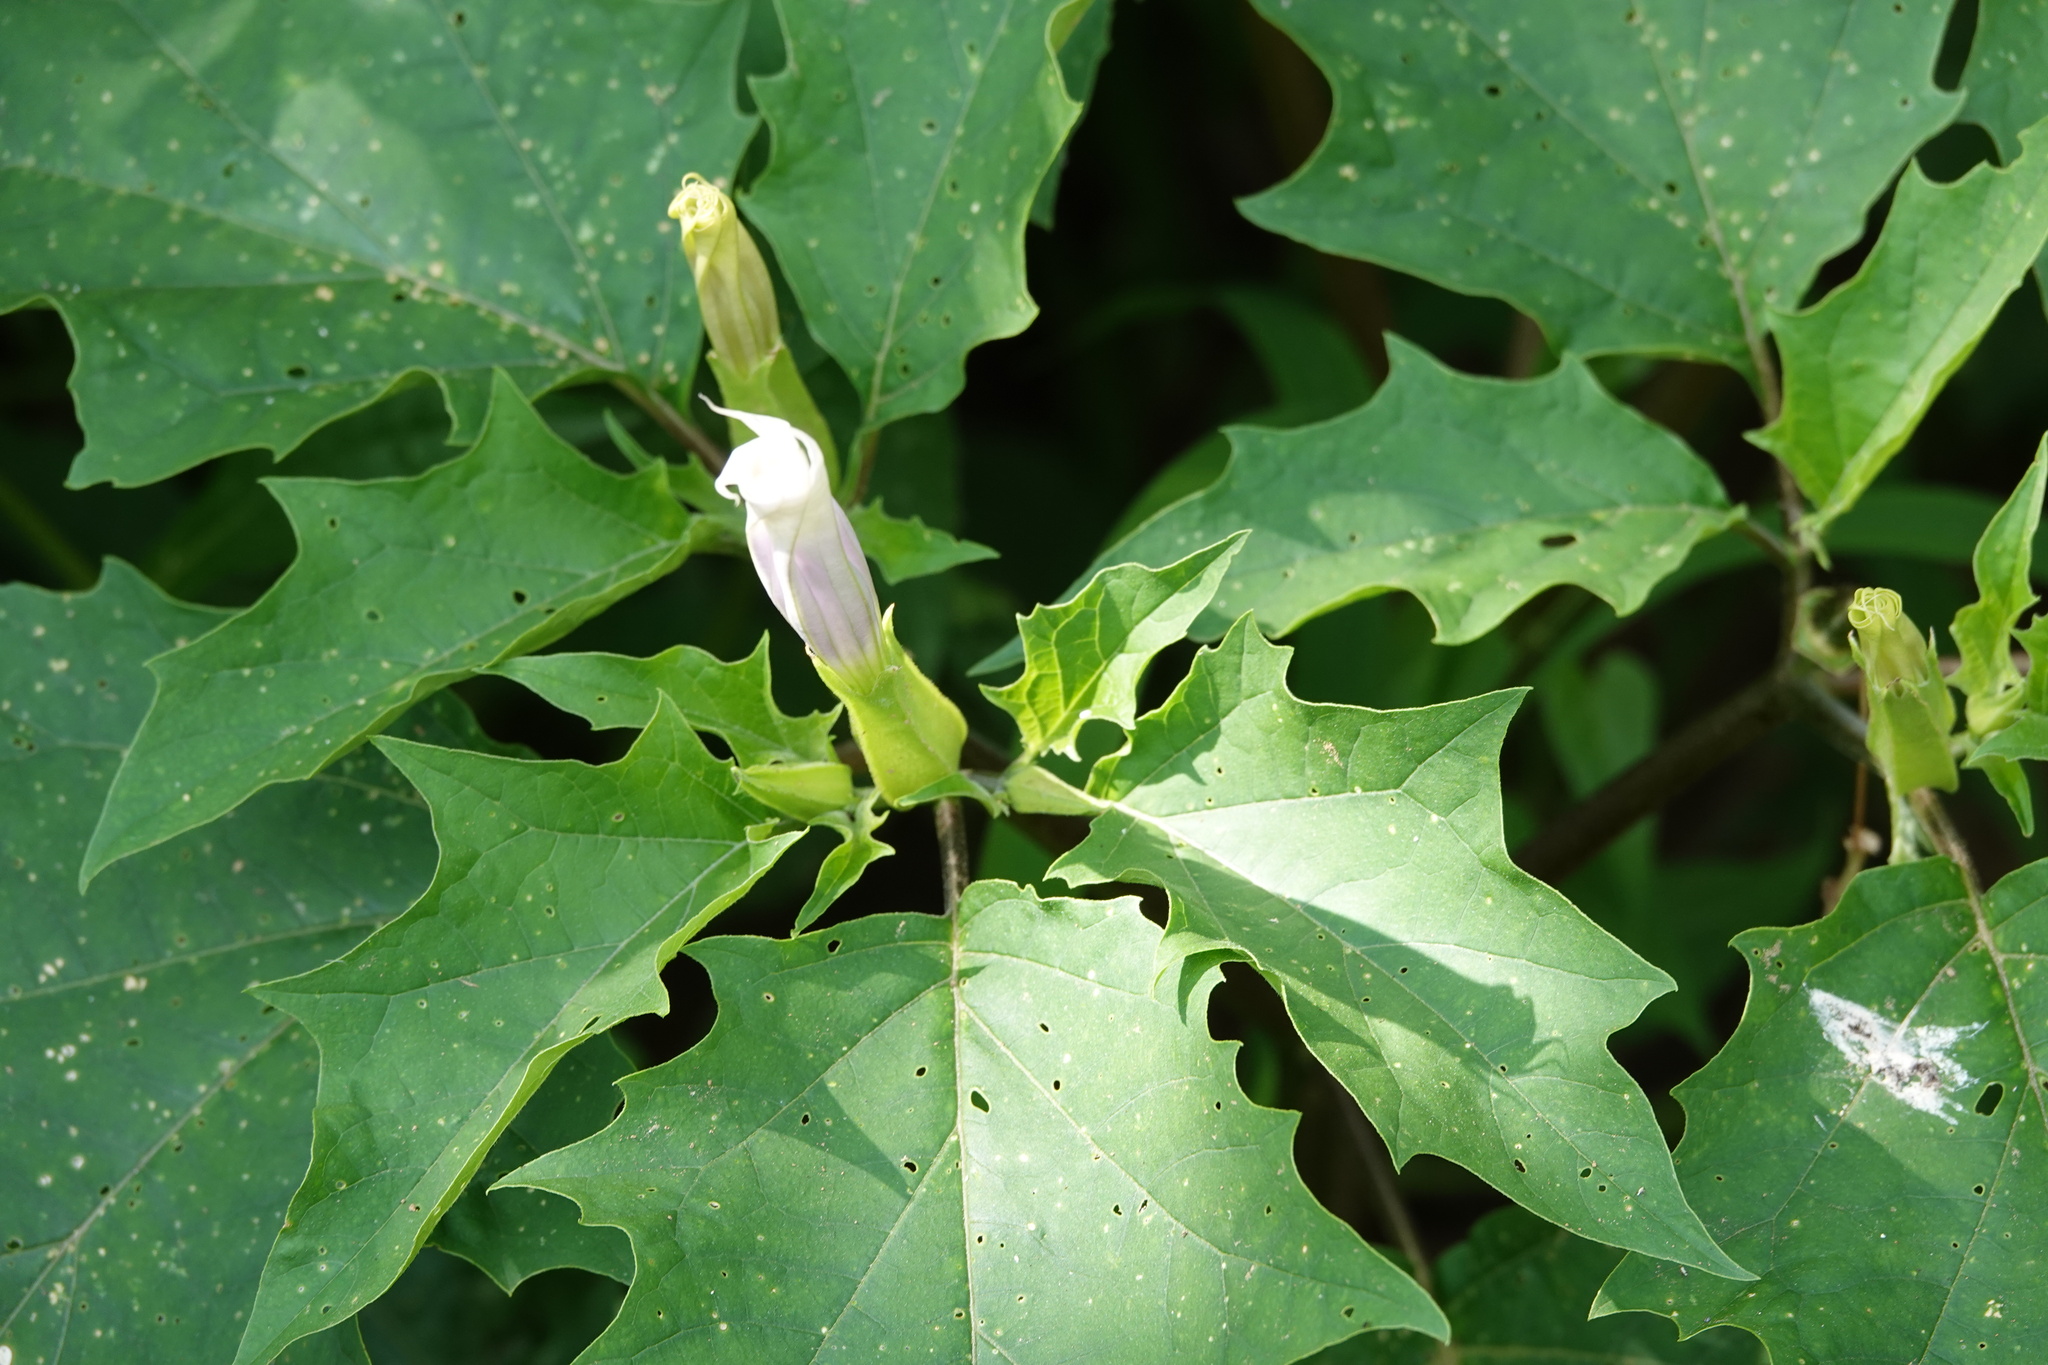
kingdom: Plantae
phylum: Tracheophyta
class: Magnoliopsida
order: Solanales
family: Solanaceae
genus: Datura
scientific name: Datura stramonium
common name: Thorn-apple
